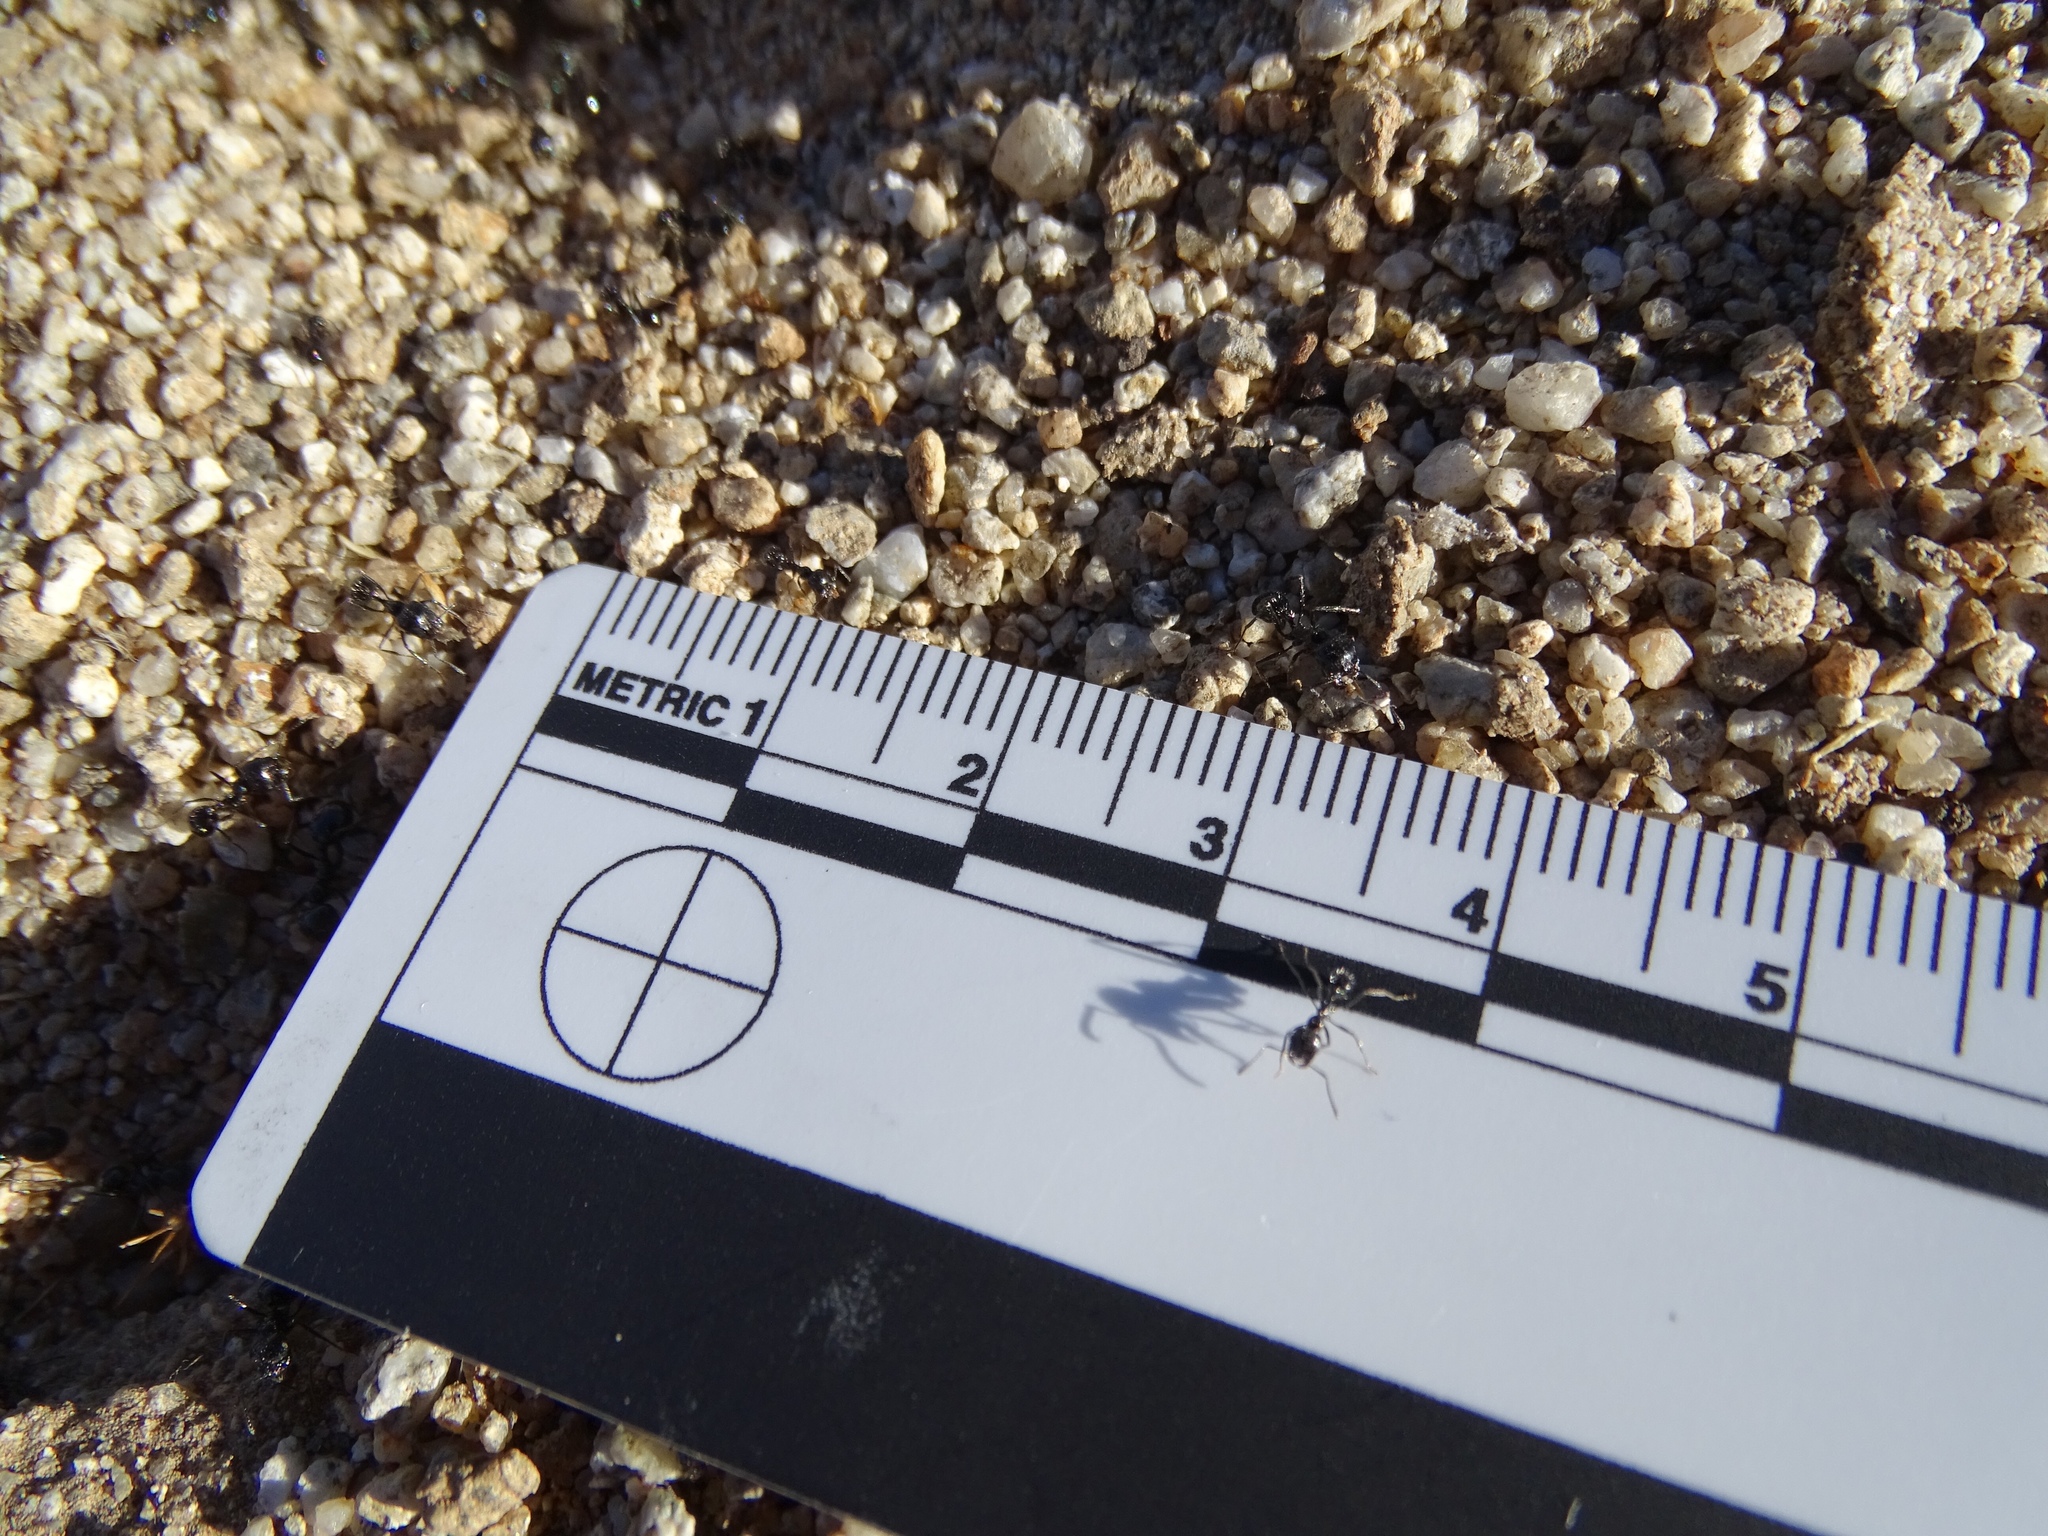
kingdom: Animalia
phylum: Arthropoda
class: Insecta
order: Hymenoptera
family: Formicidae
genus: Messor
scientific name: Messor pergandei
